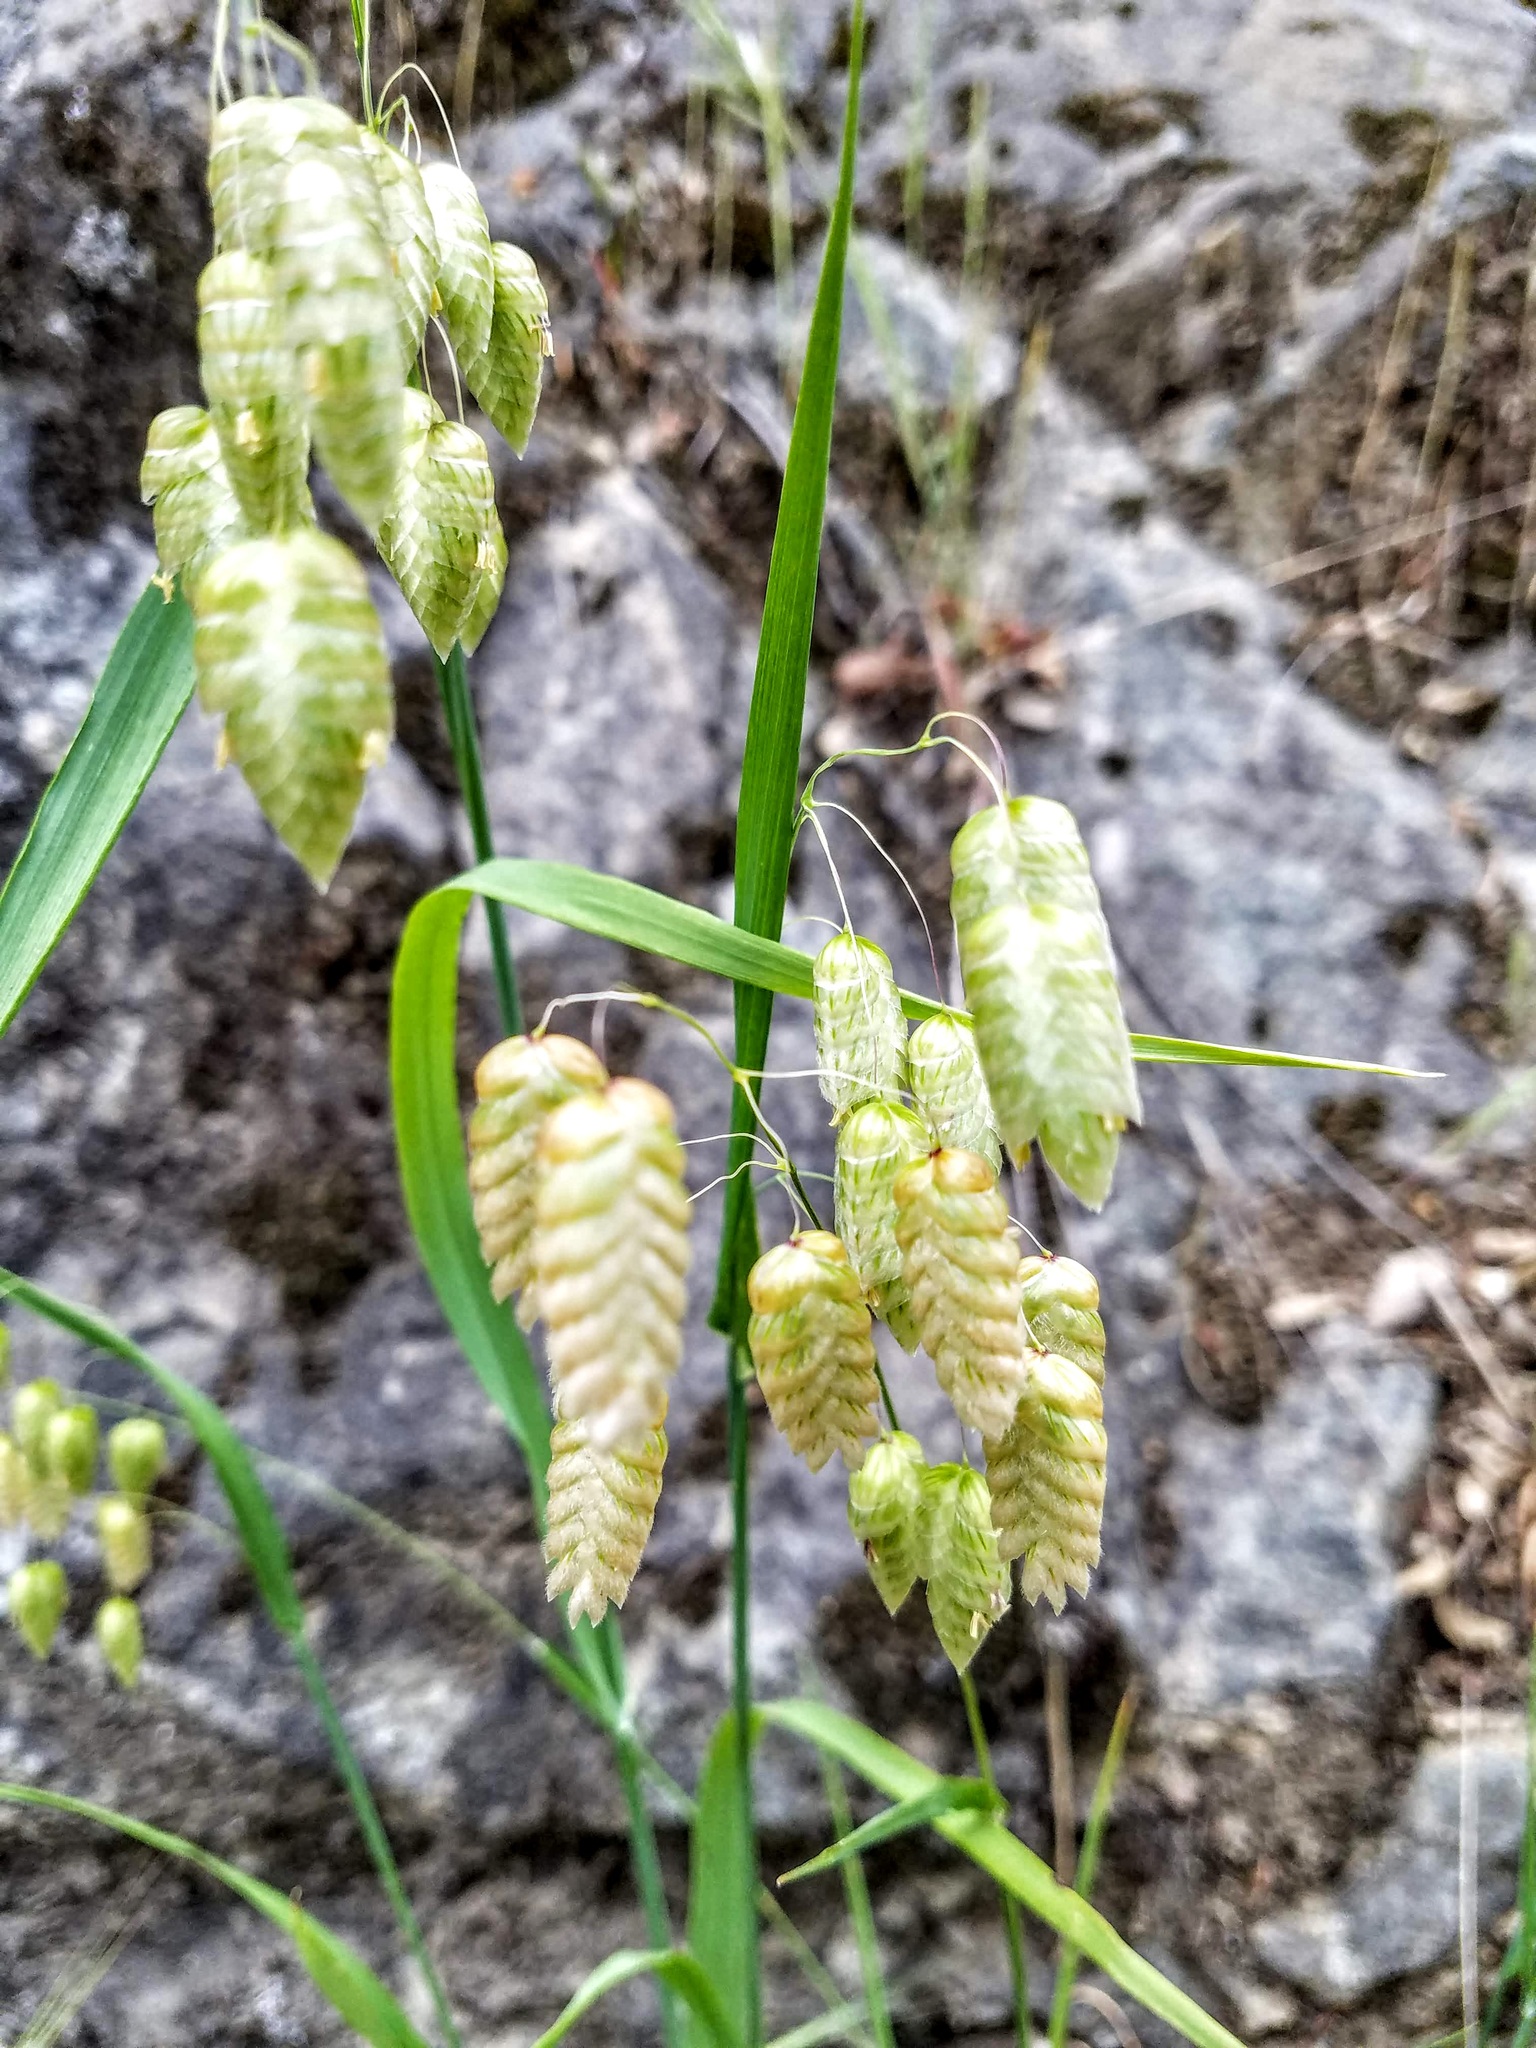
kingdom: Plantae
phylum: Tracheophyta
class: Liliopsida
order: Poales
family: Poaceae
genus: Briza
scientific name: Briza maxima
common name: Big quakinggrass
